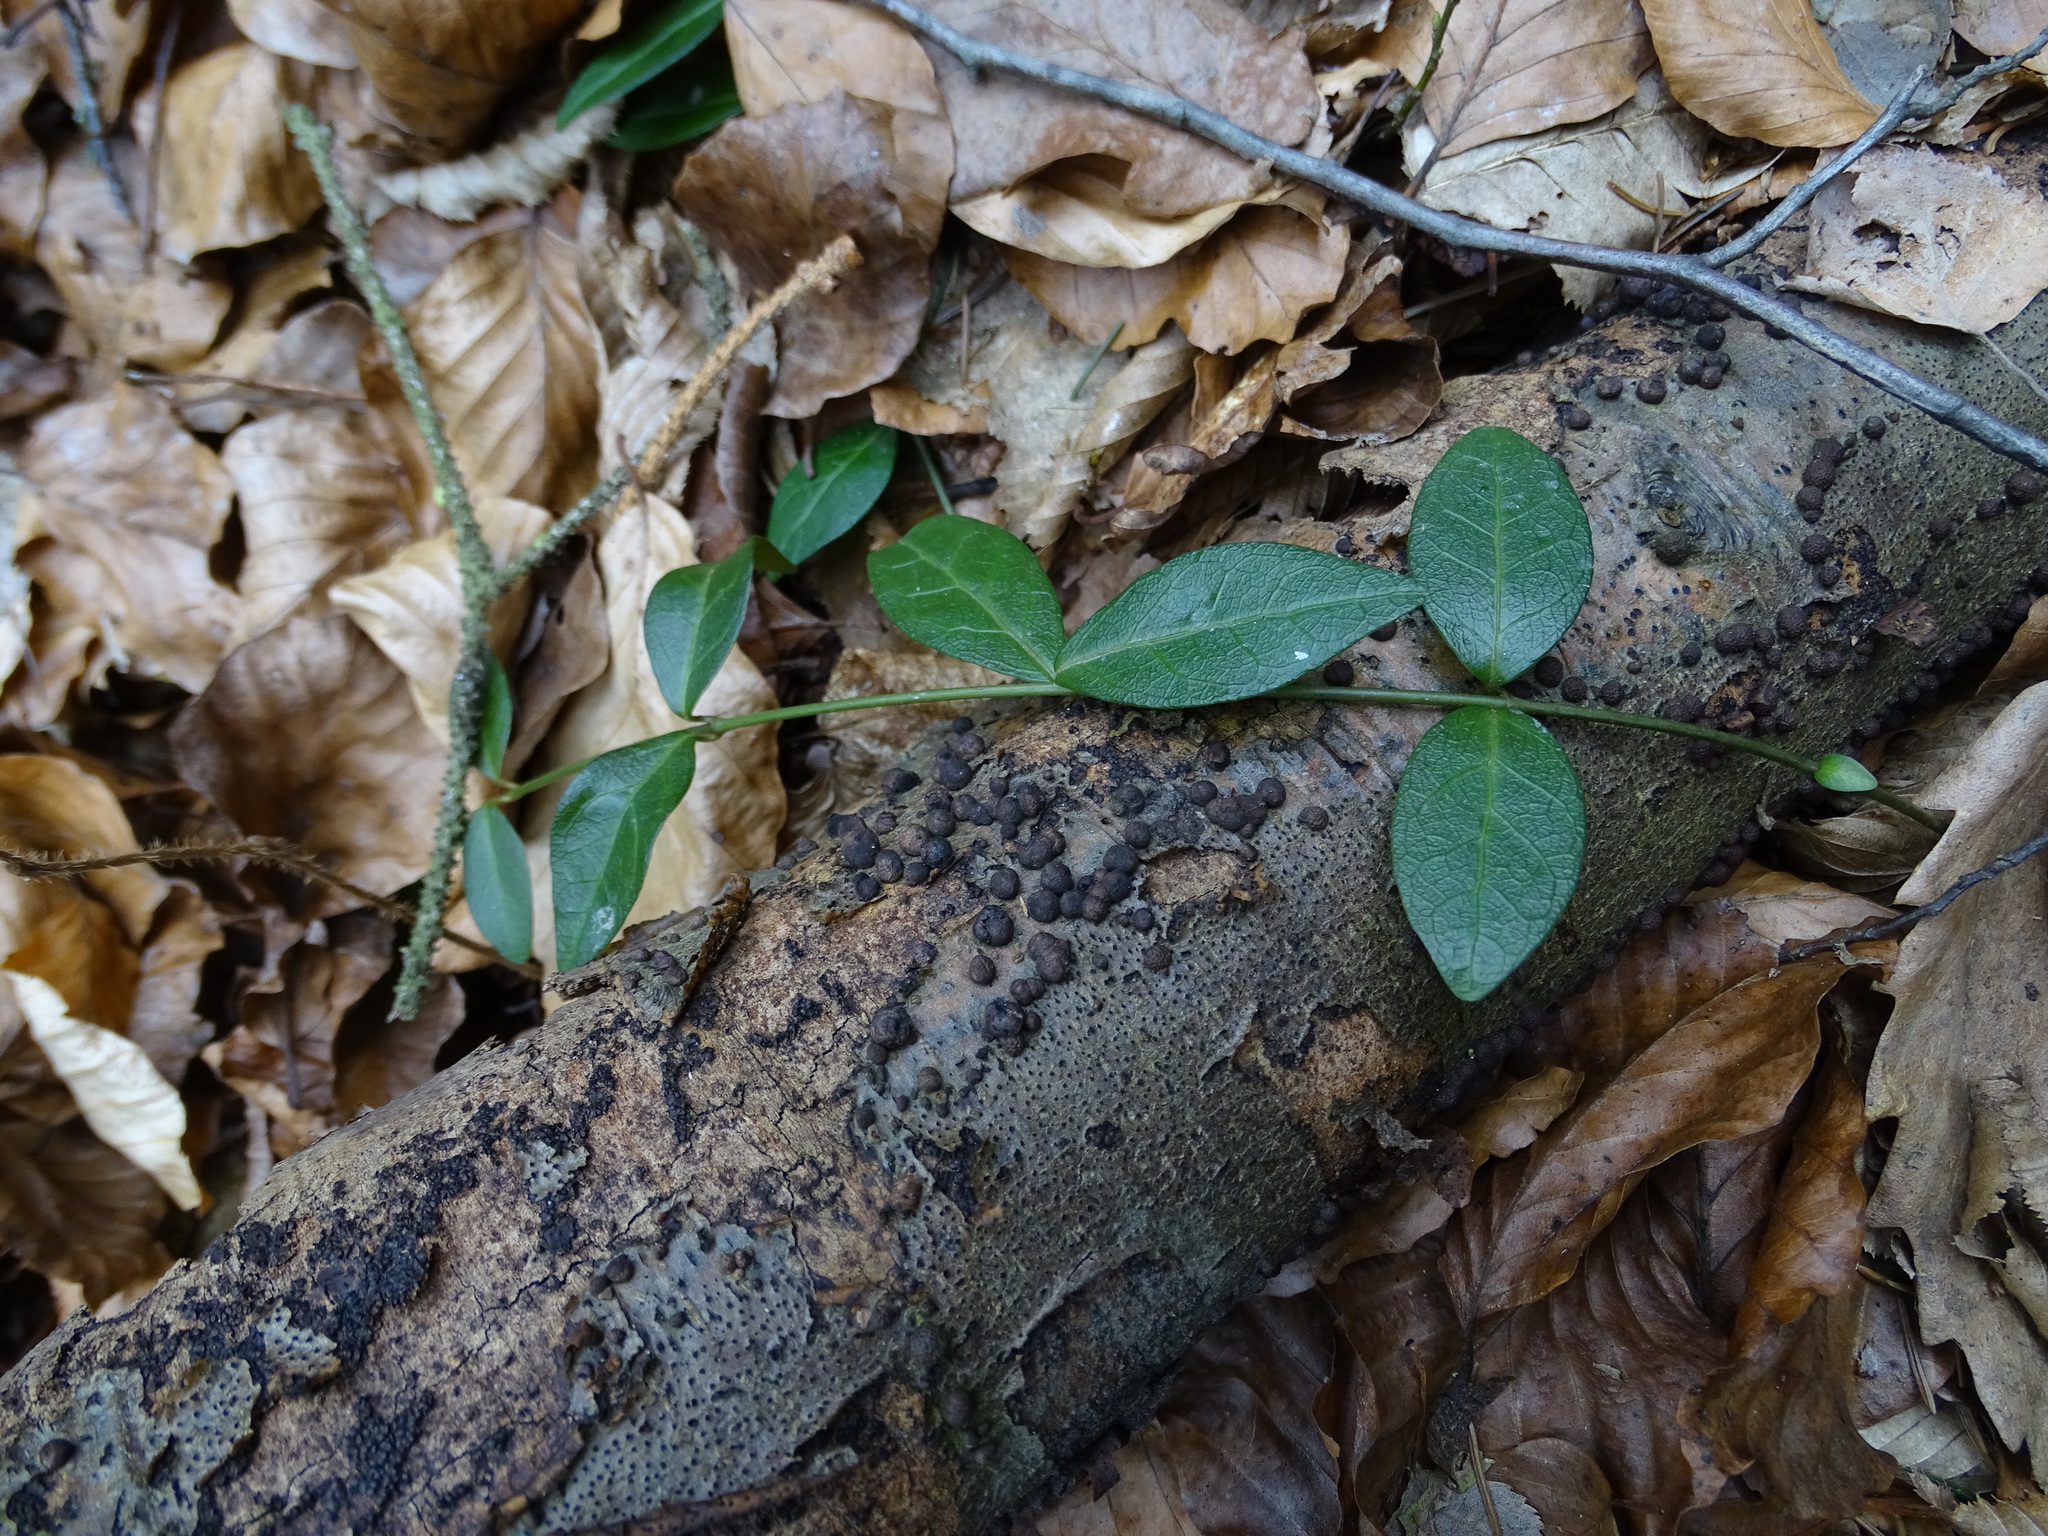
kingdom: Plantae
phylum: Tracheophyta
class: Magnoliopsida
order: Gentianales
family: Apocynaceae
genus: Vinca
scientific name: Vinca minor
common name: Lesser periwinkle
